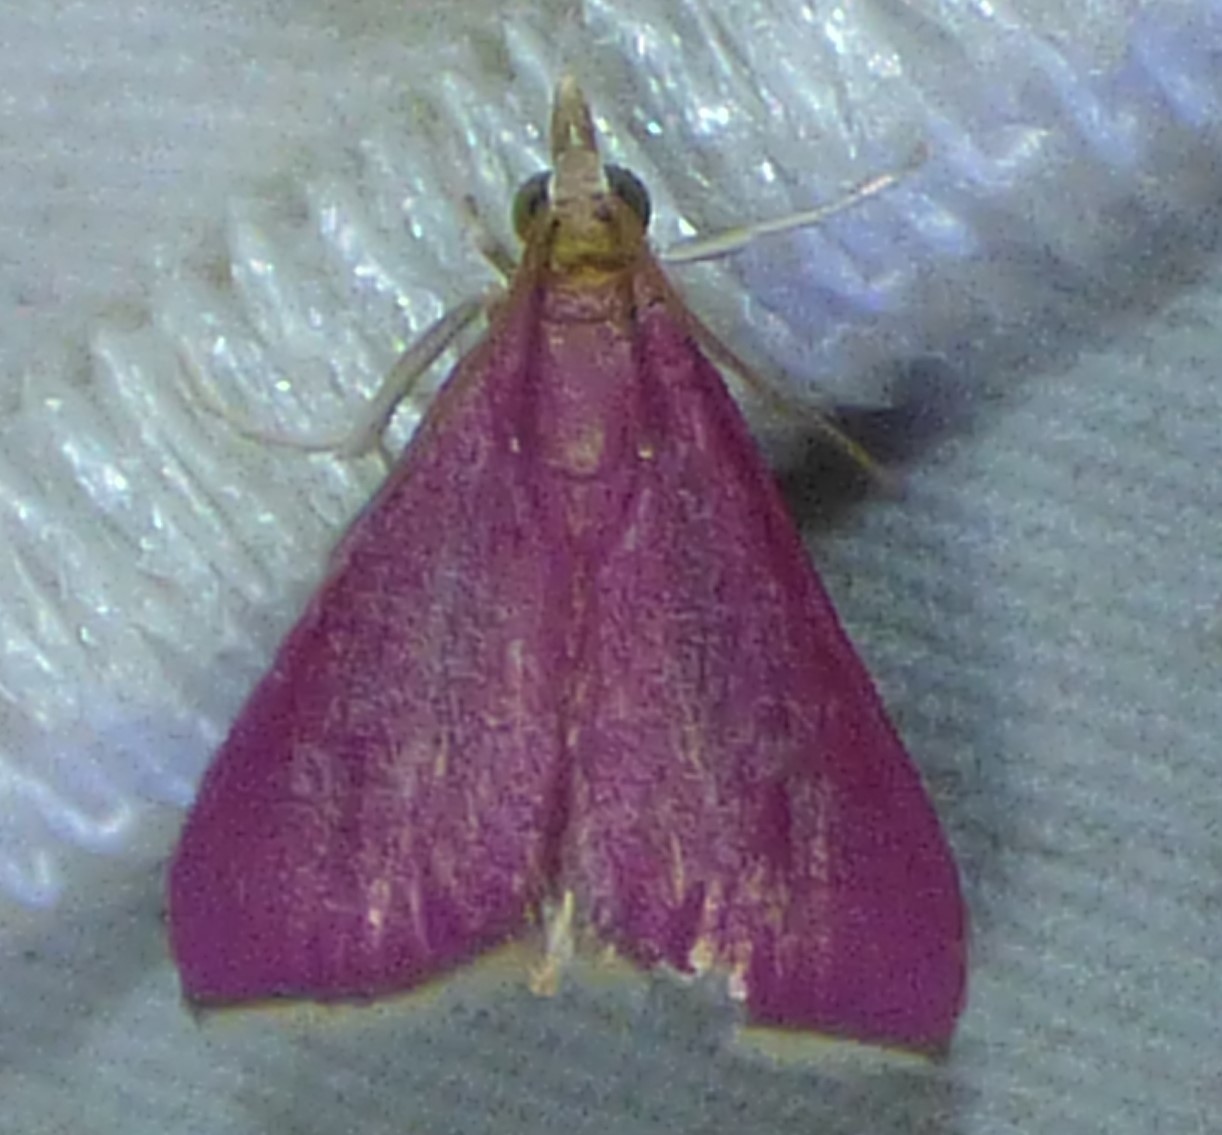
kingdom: Animalia
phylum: Arthropoda
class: Insecta
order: Lepidoptera
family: Crambidae
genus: Pyrausta
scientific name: Pyrausta inornatalis
